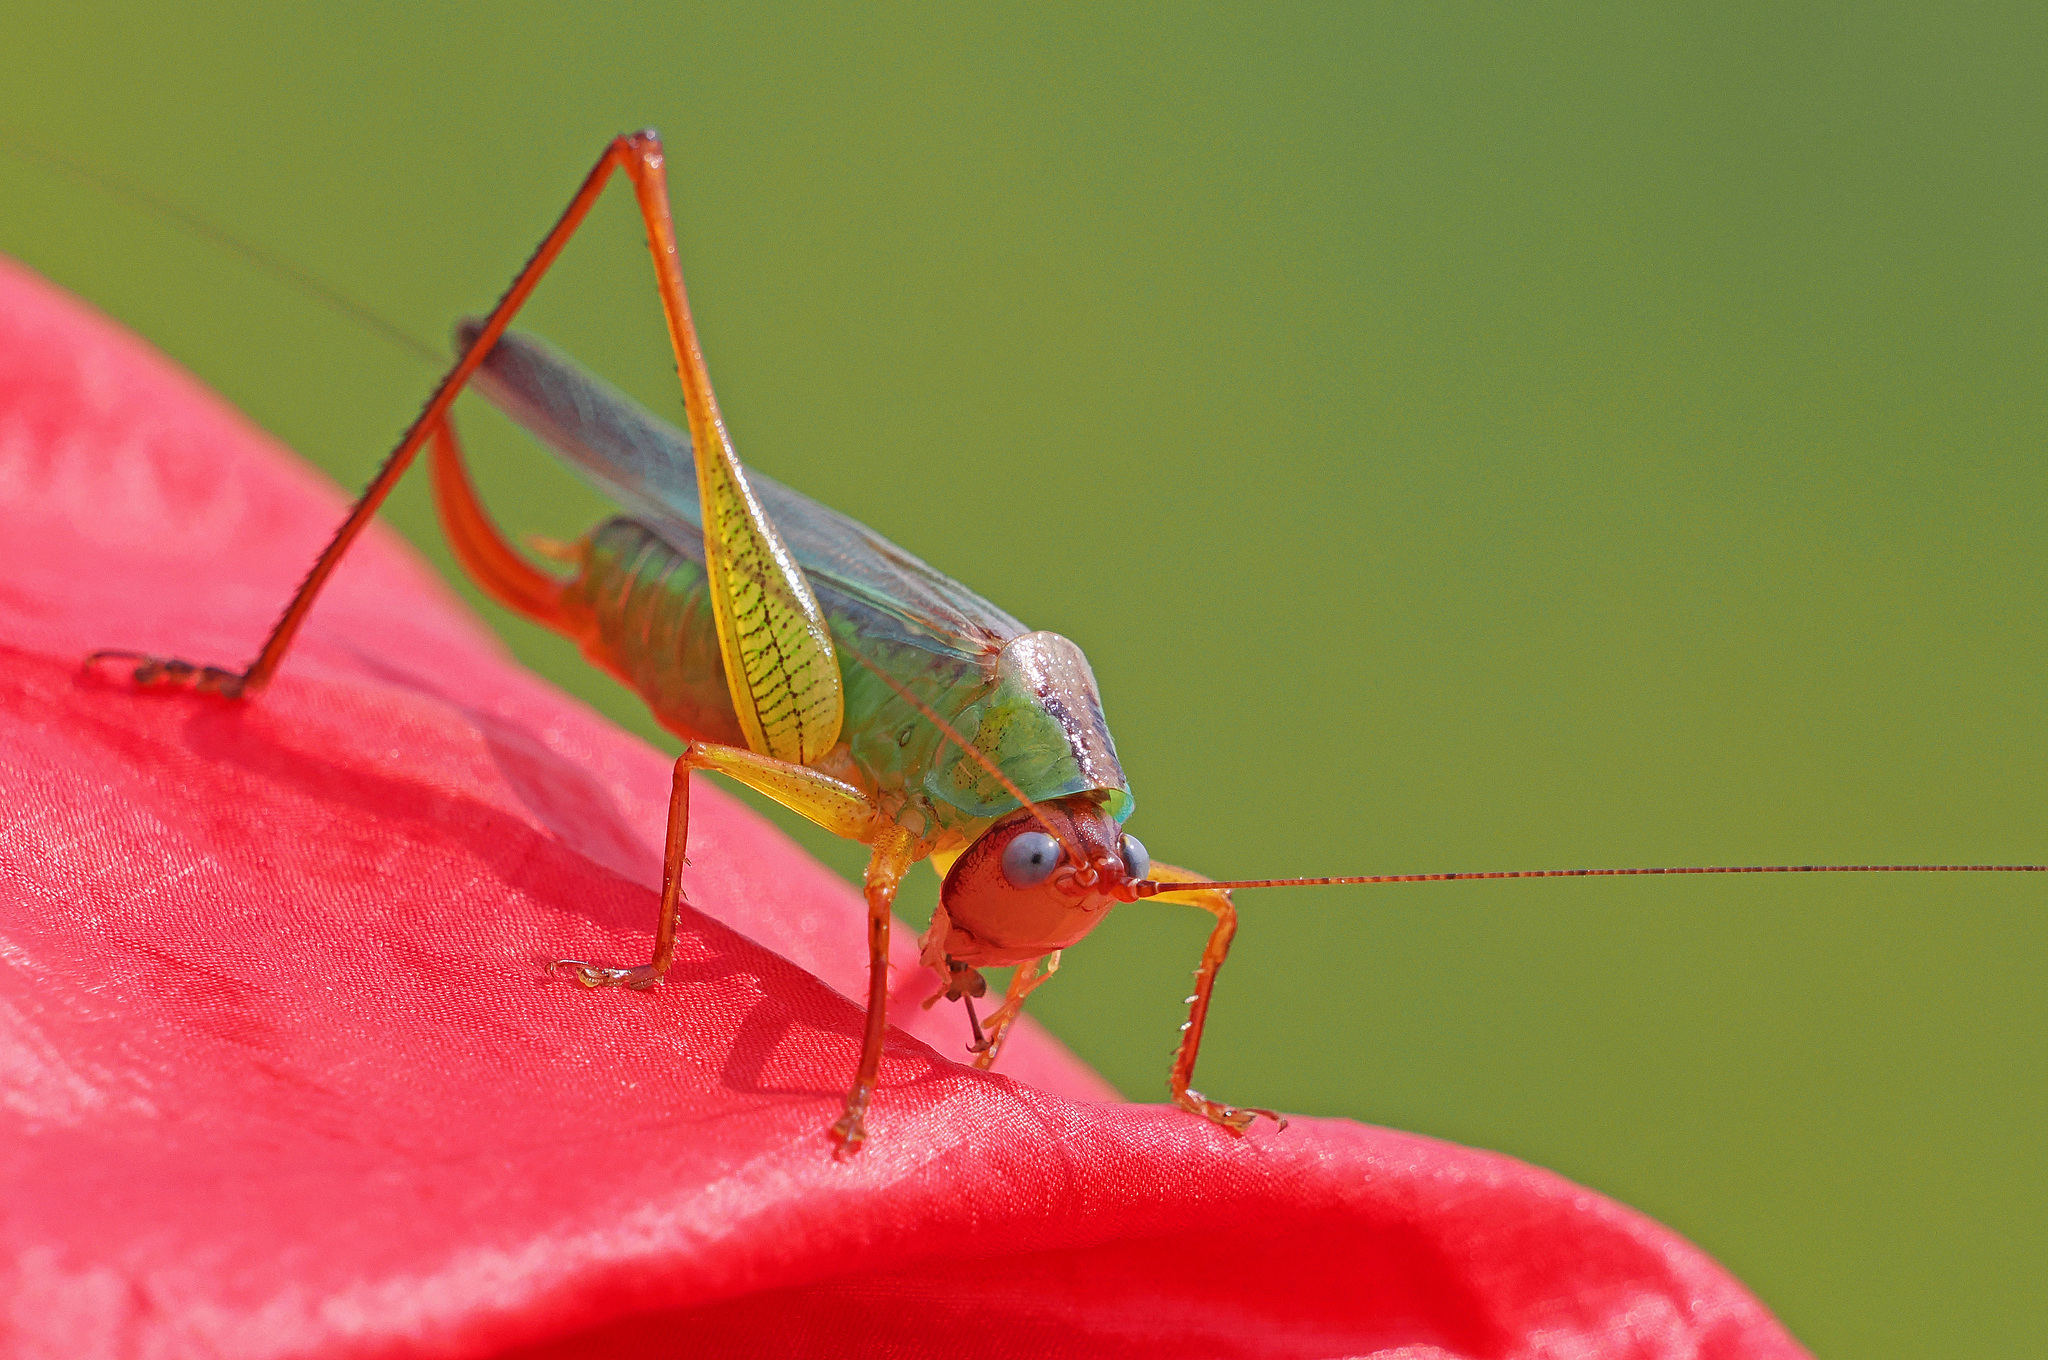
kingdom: Animalia
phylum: Arthropoda
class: Insecta
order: Orthoptera
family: Tettigoniidae
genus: Orchelimum
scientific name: Orchelimum pulchellum
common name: Handsome meadow katydid
